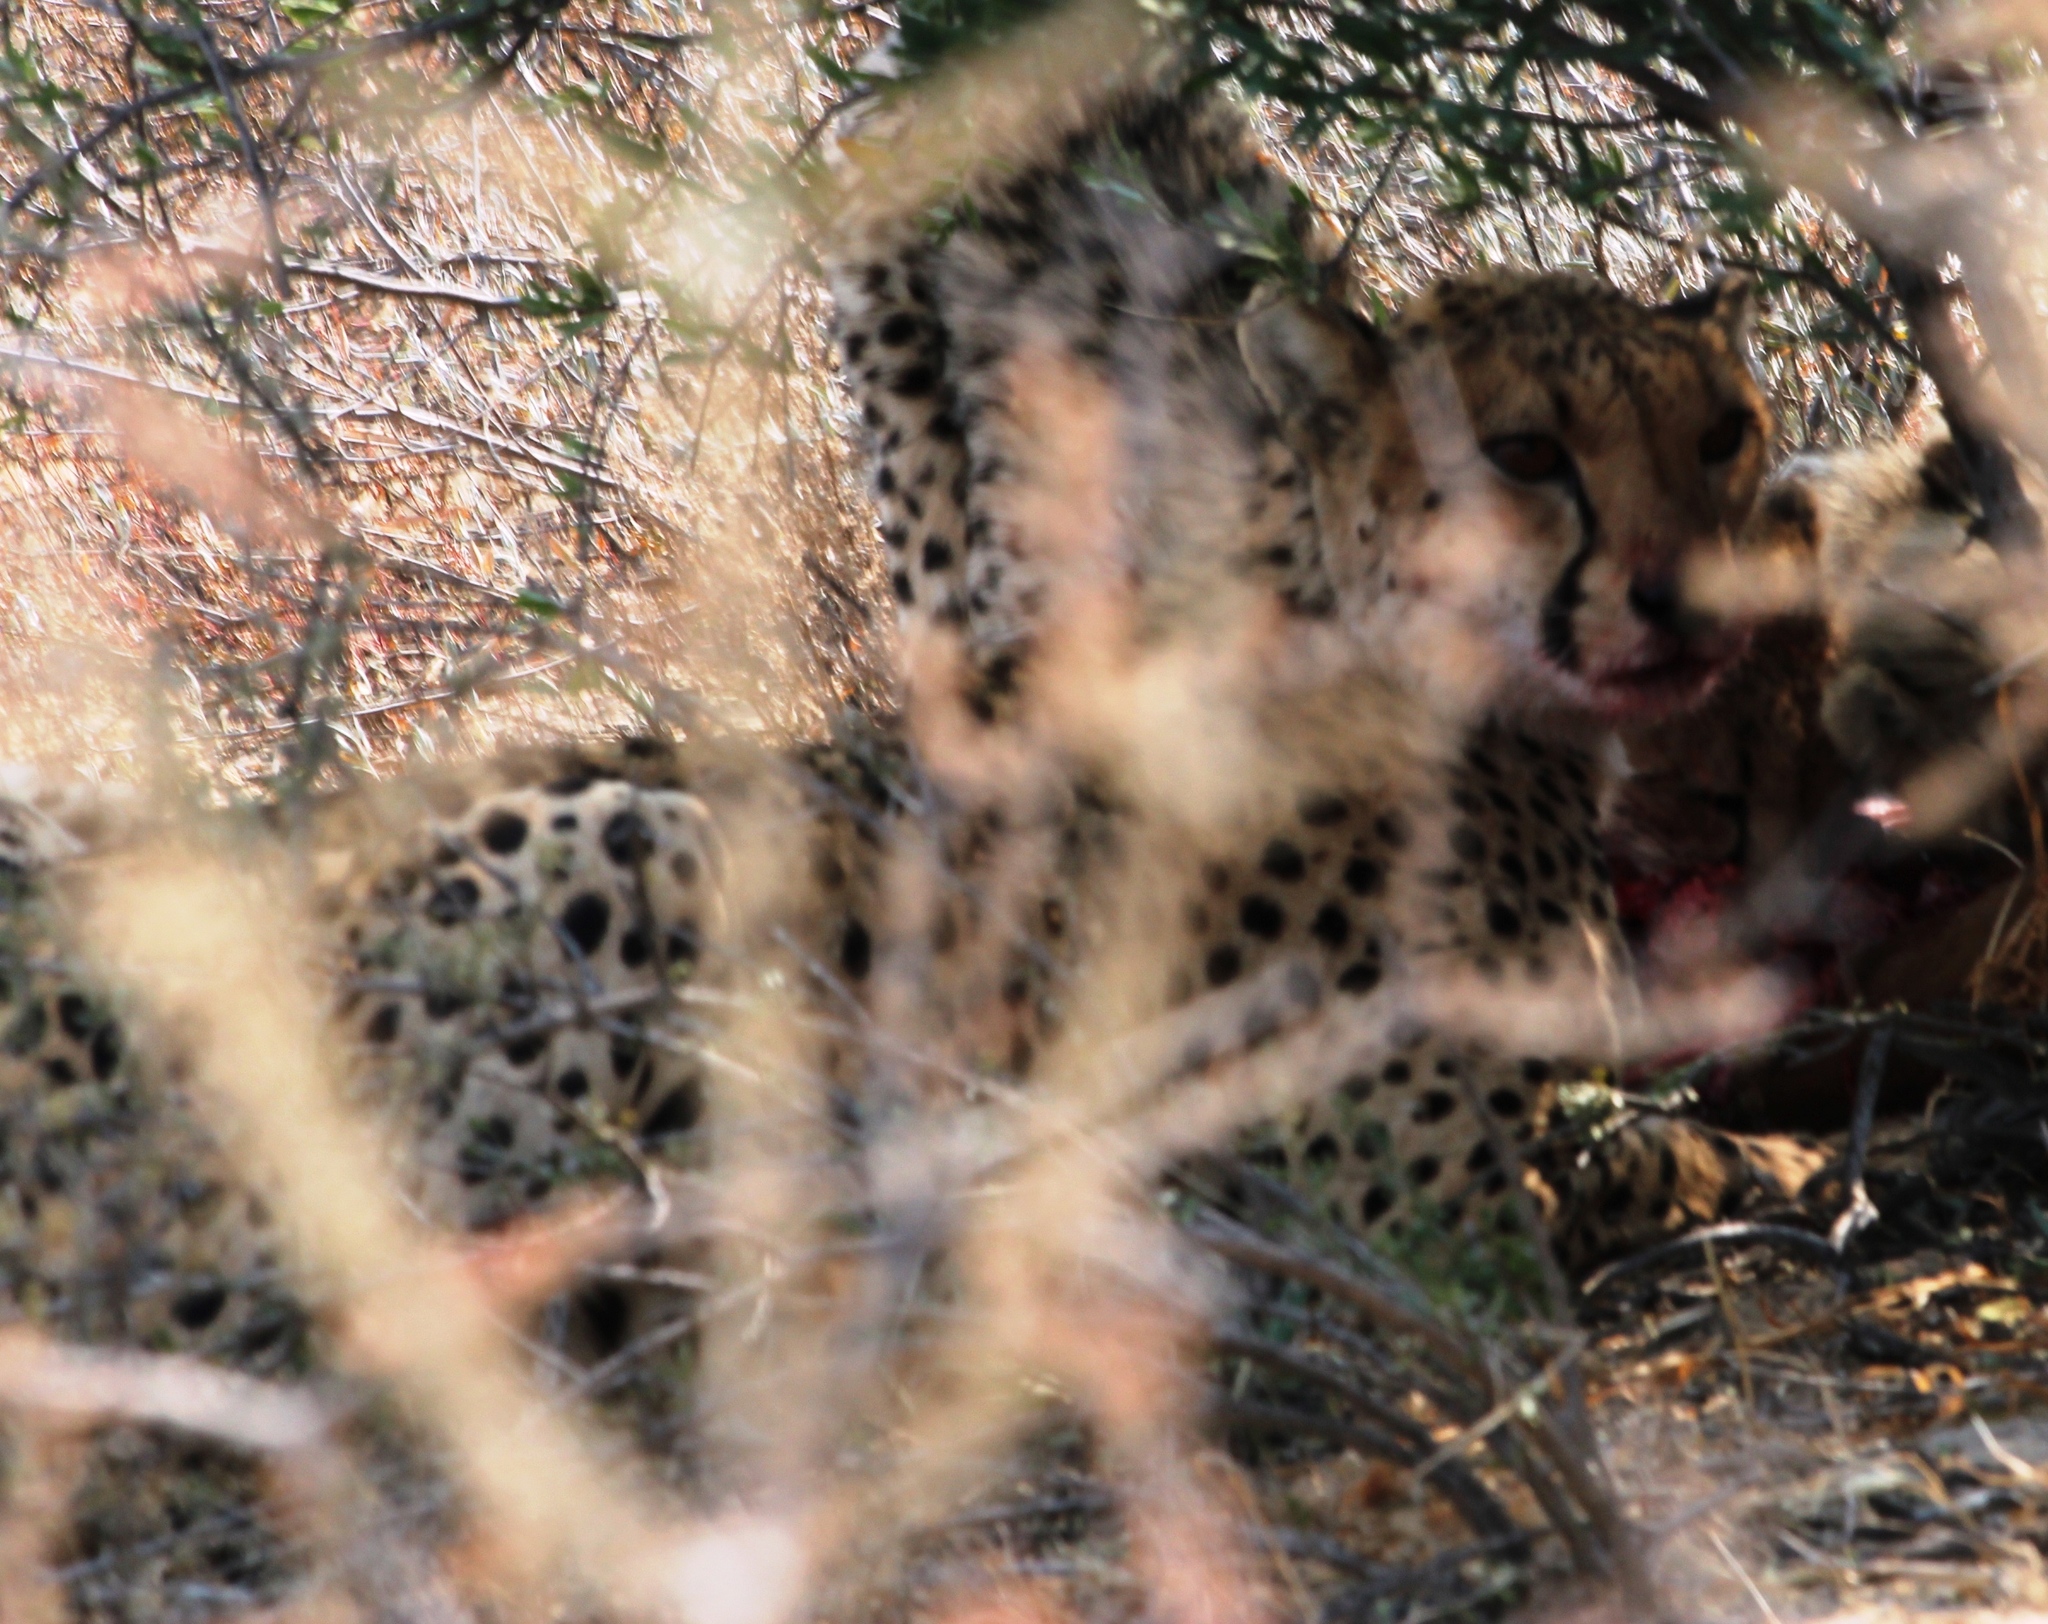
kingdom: Animalia
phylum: Chordata
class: Mammalia
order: Carnivora
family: Felidae
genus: Acinonyx
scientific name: Acinonyx jubatus
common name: Cheetah
